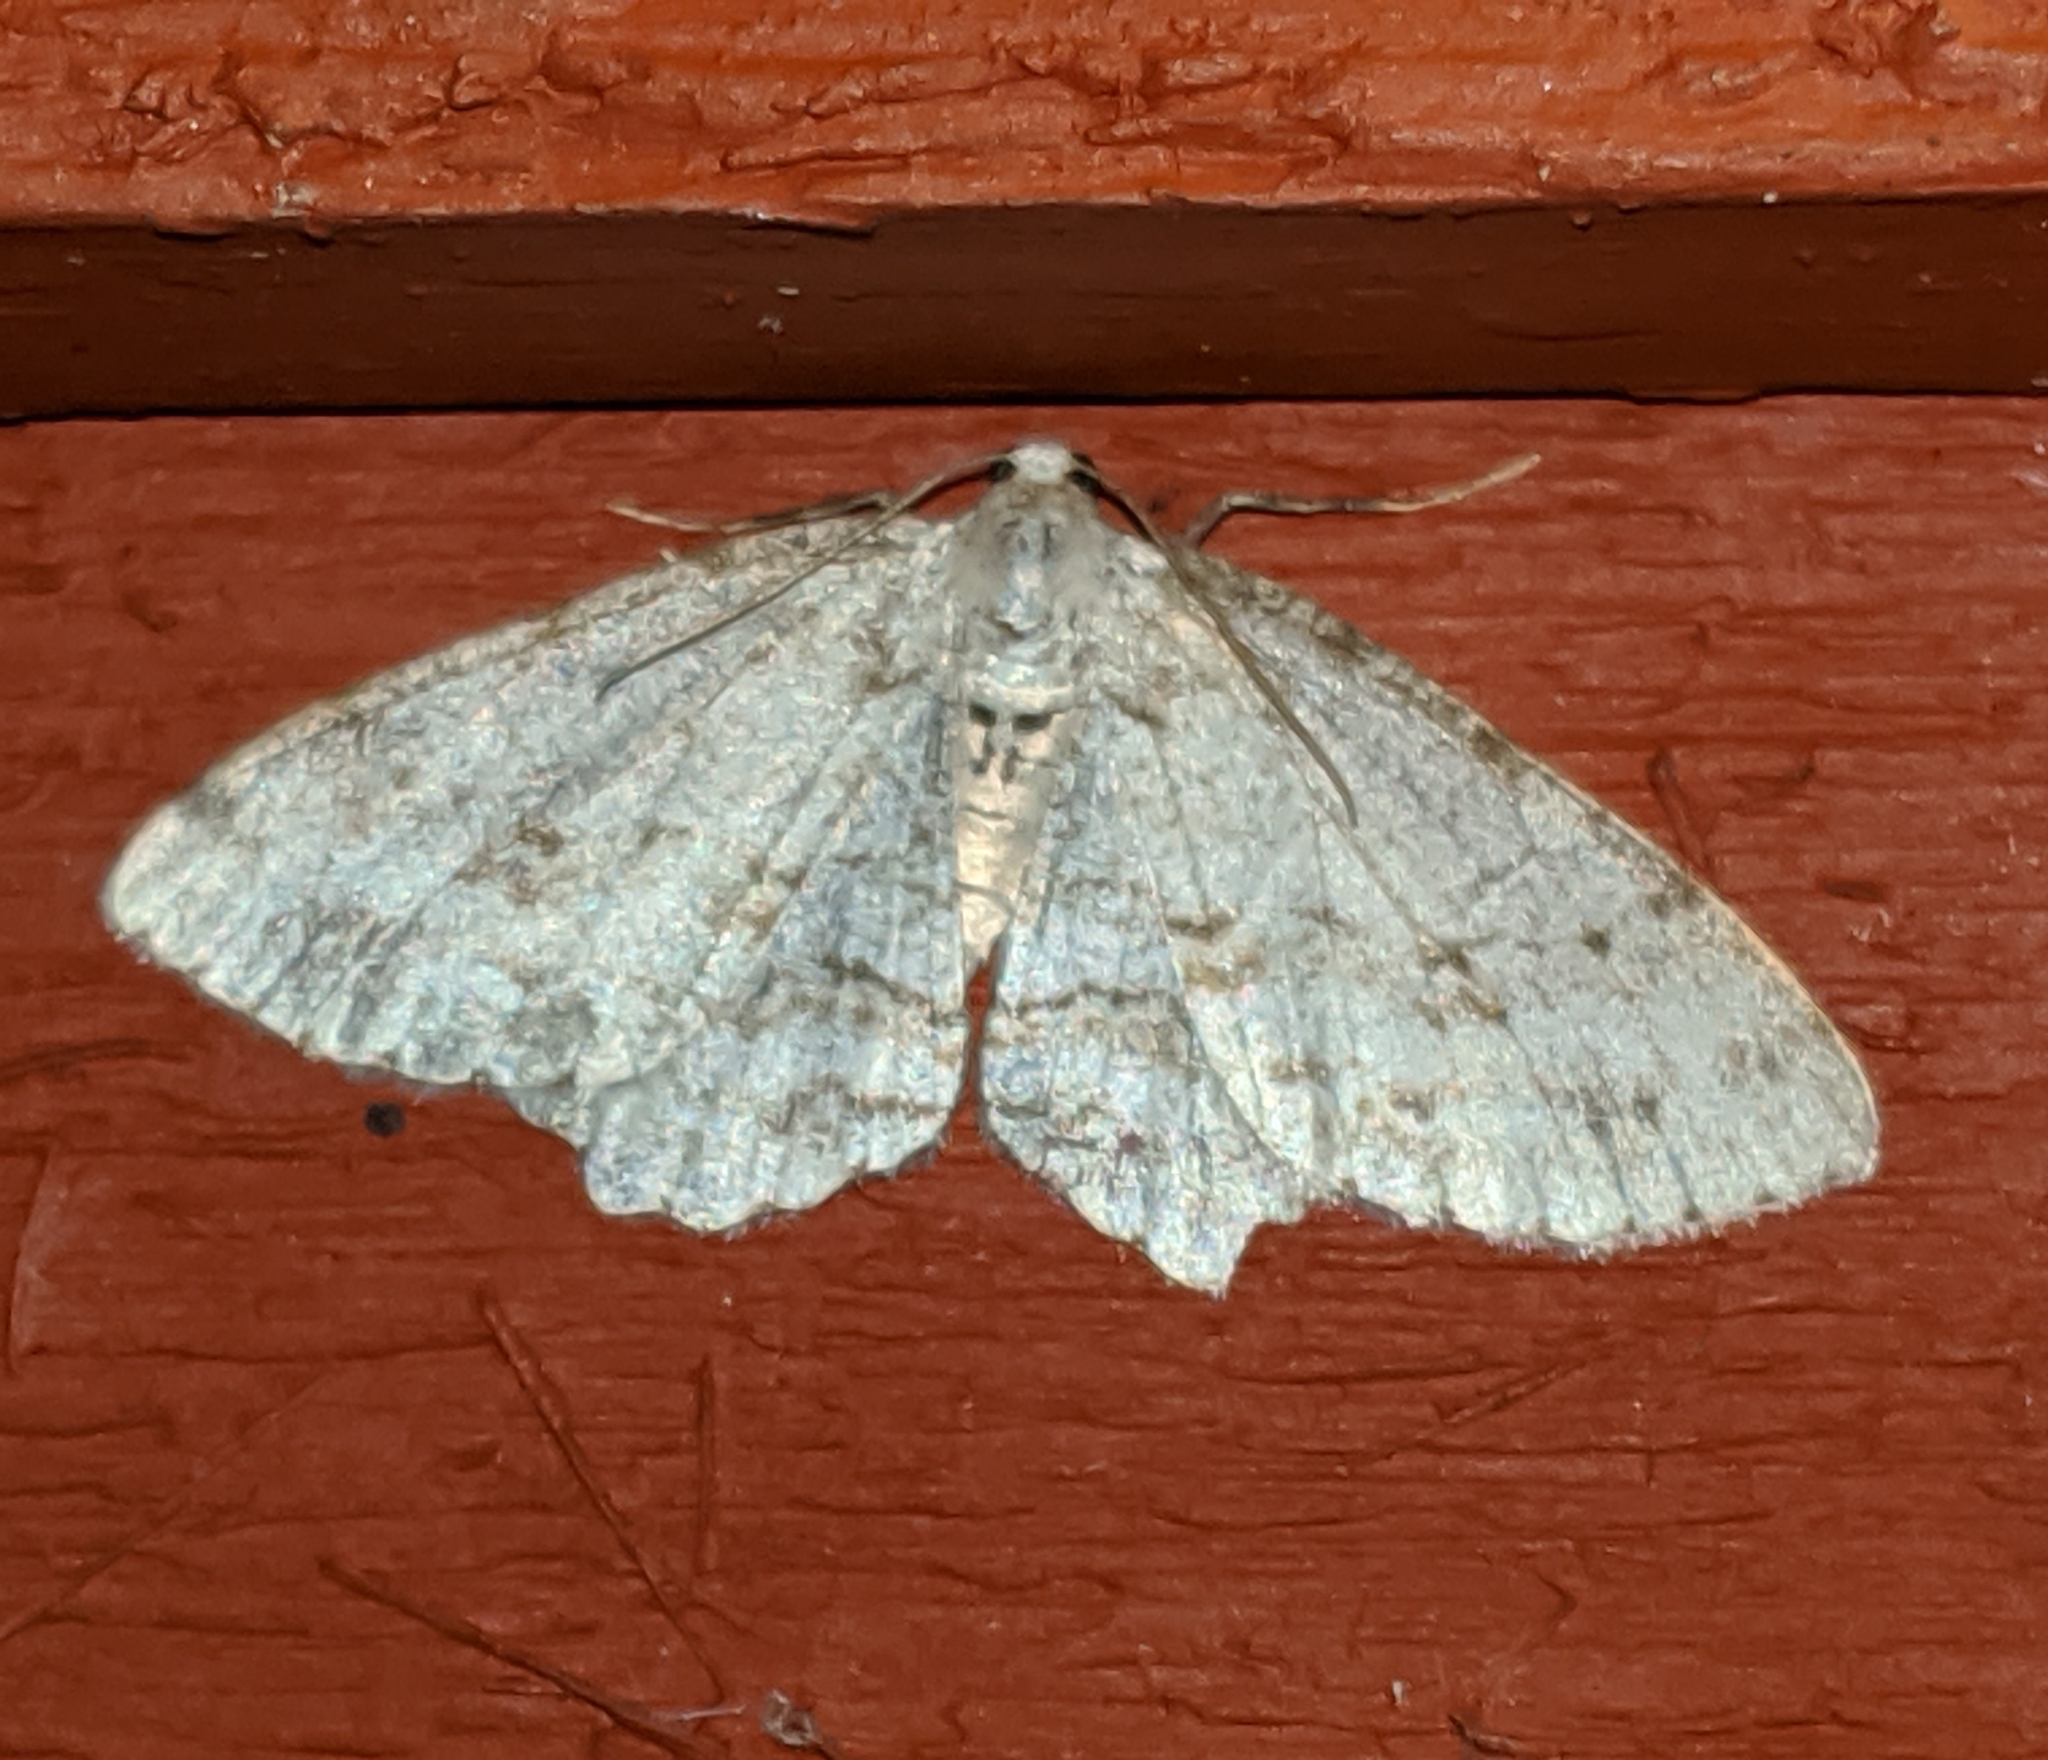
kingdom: Animalia
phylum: Arthropoda
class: Insecta
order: Lepidoptera
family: Geometridae
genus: Ectropis
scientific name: Ectropis crepuscularia
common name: Engrailed
